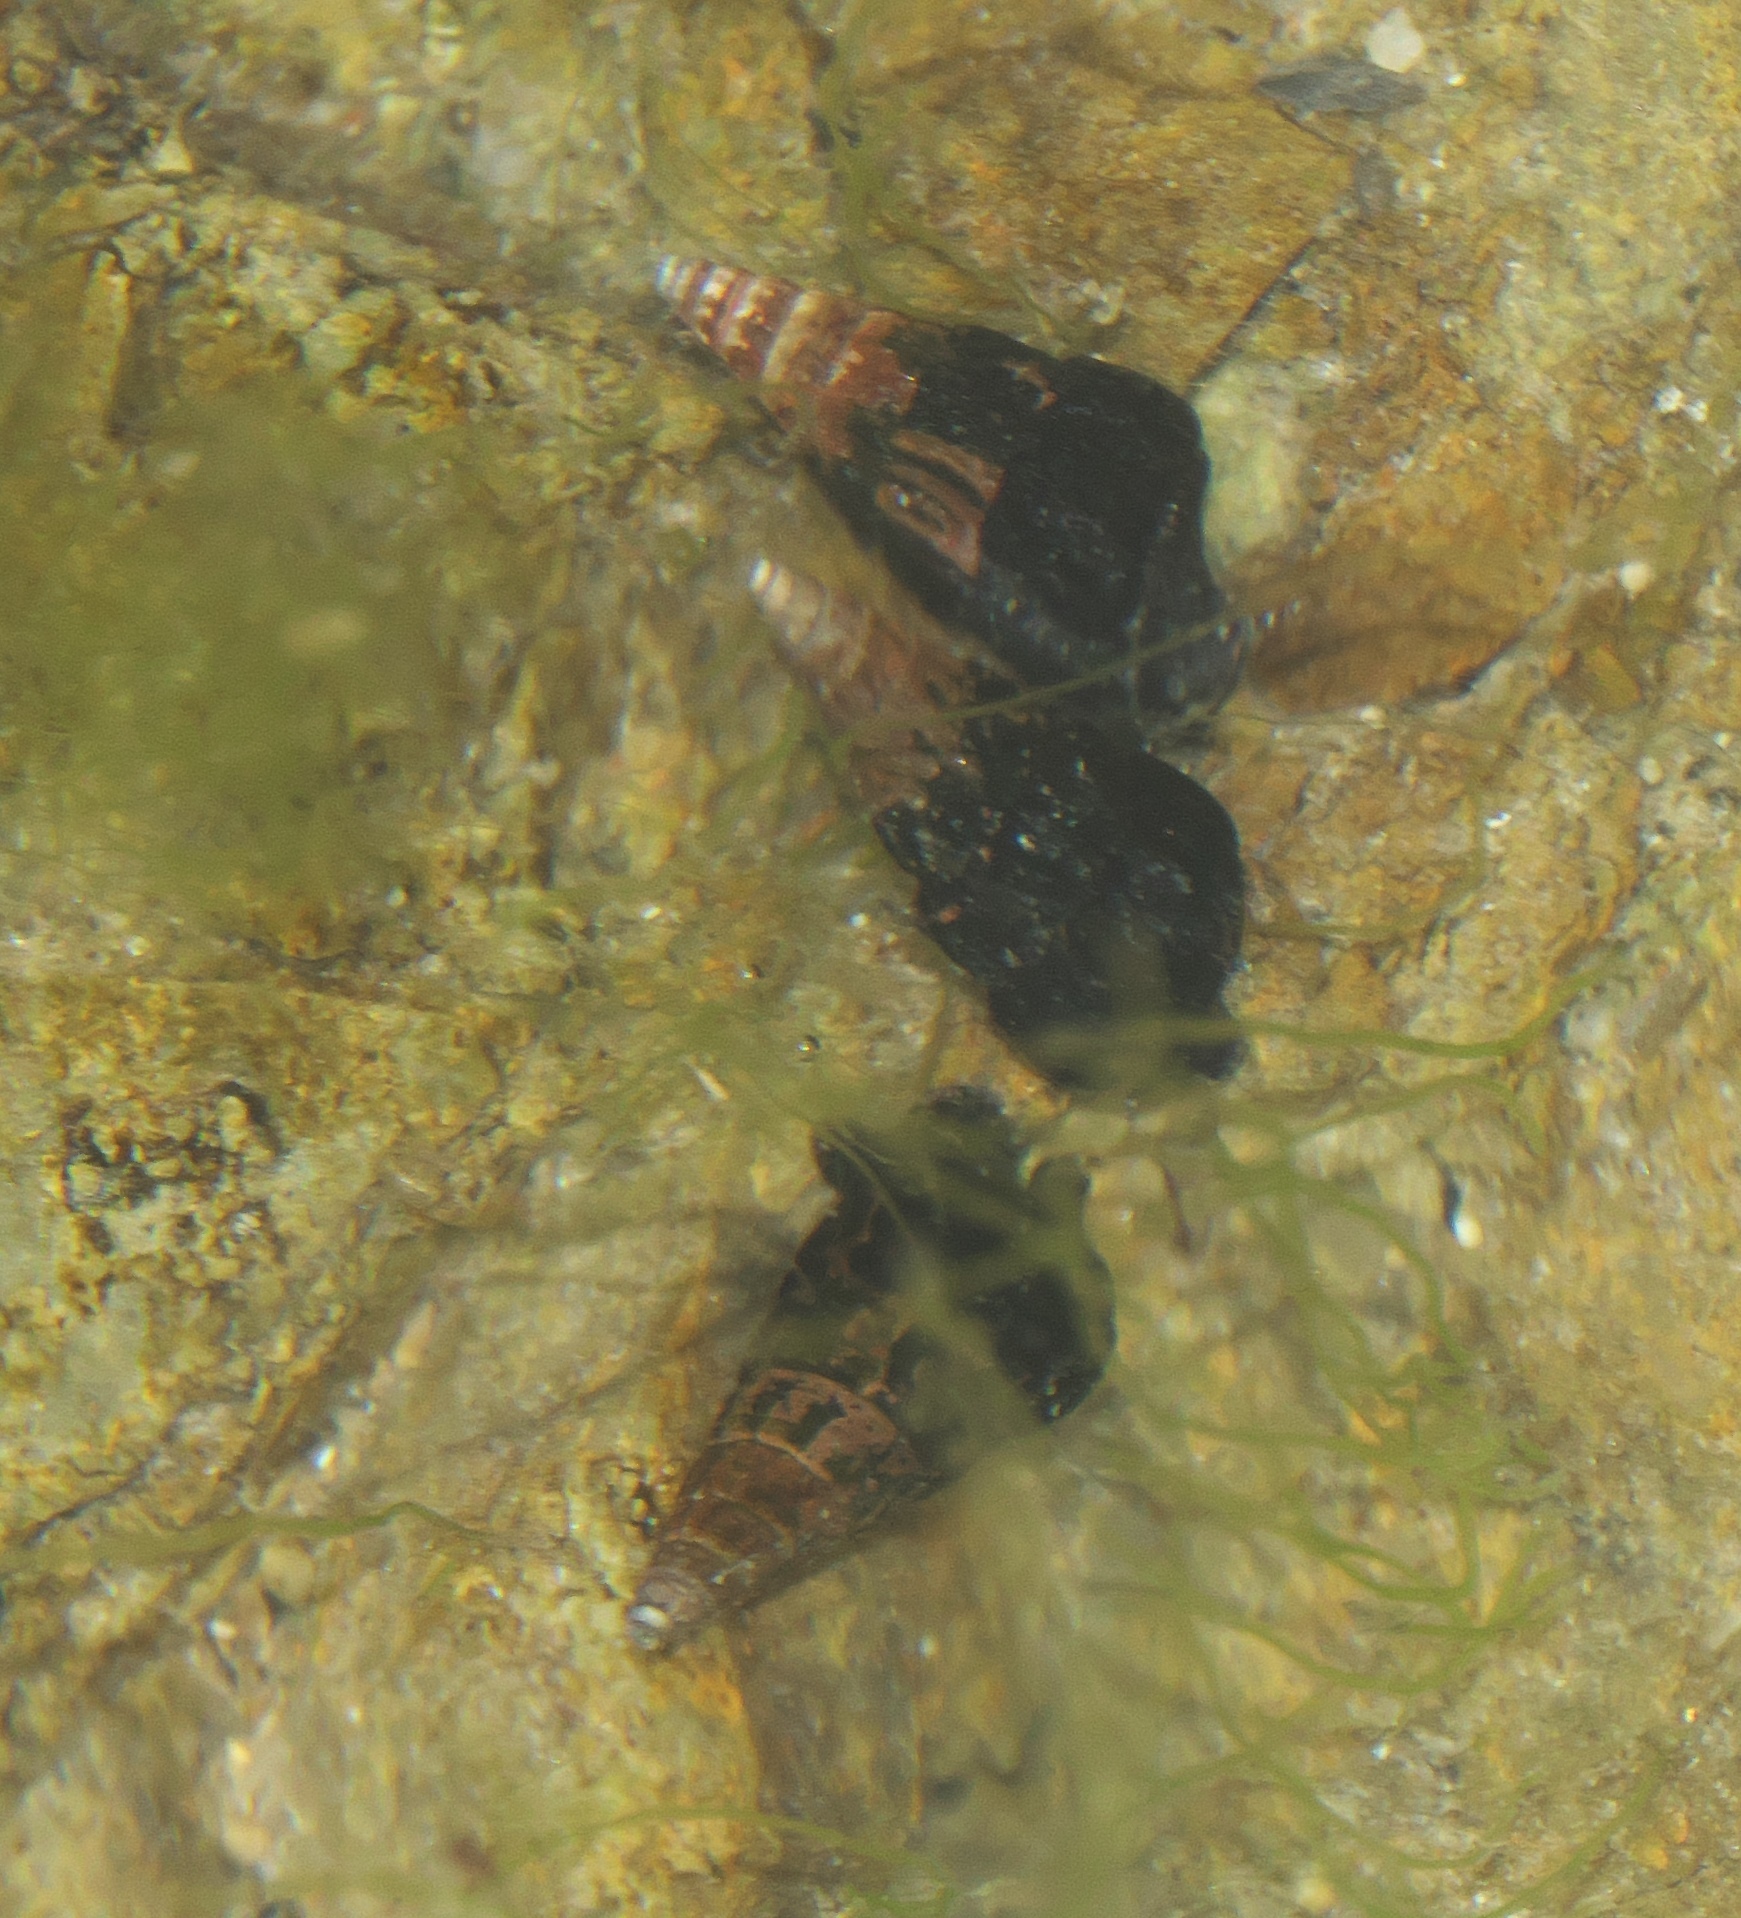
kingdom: Animalia
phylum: Mollusca
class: Gastropoda
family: Batillariidae
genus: Zeacumantus
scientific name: Zeacumantus subcarinatus
